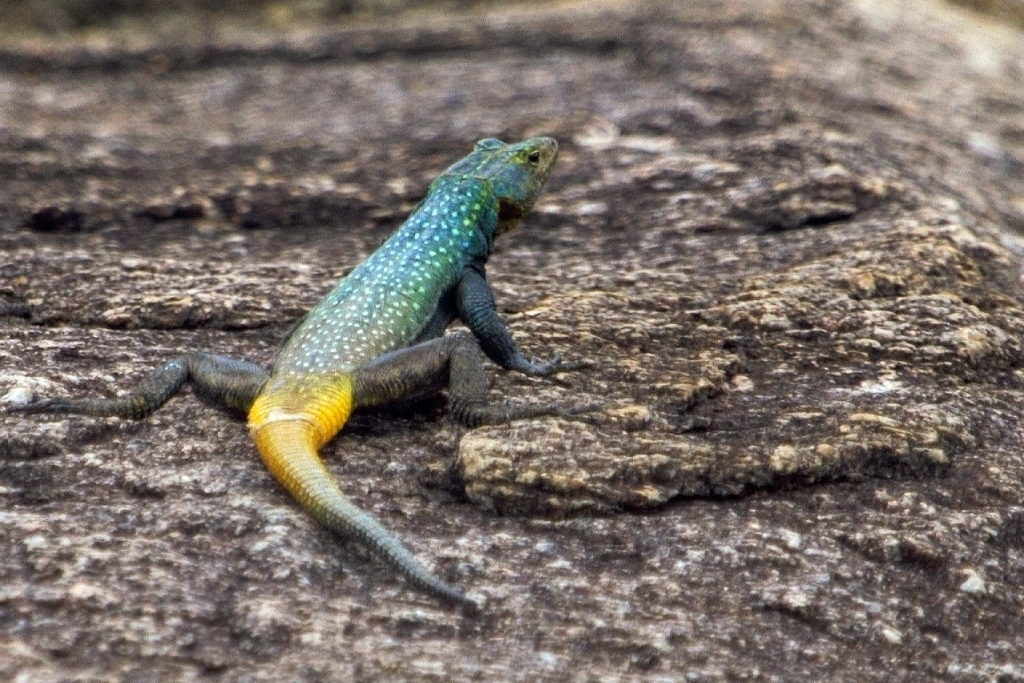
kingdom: Animalia
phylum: Chordata
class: Squamata
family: Cordylidae
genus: Platysaurus
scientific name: Platysaurus intermedius
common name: Common flat lizard
